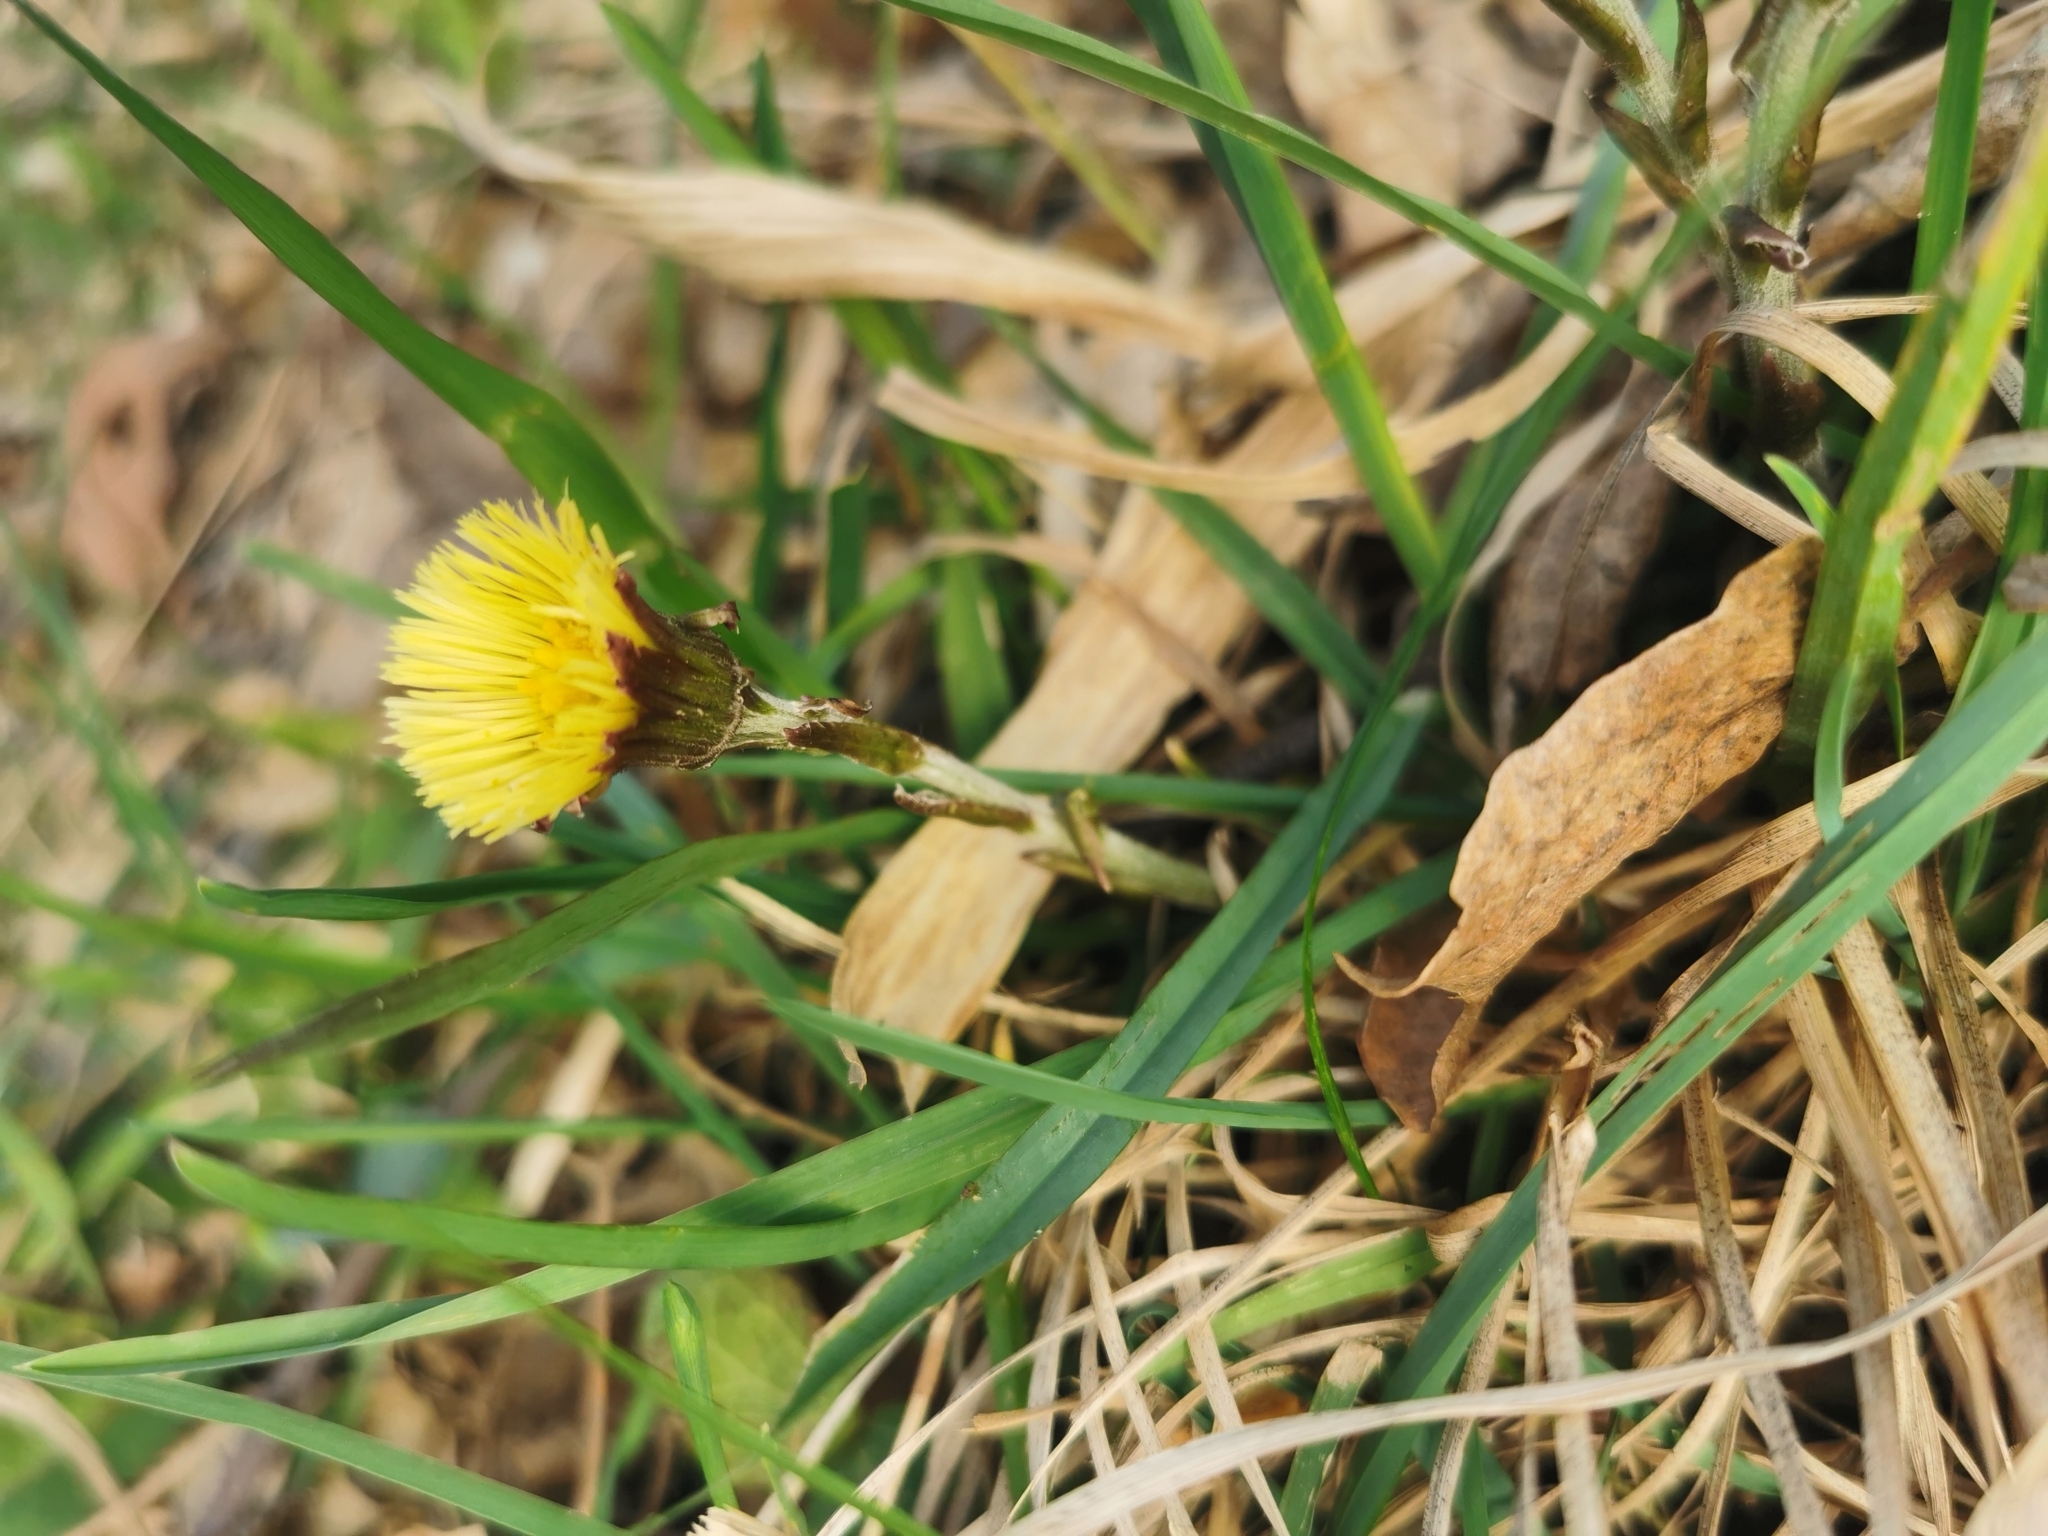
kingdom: Plantae
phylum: Tracheophyta
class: Magnoliopsida
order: Asterales
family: Asteraceae
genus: Tussilago
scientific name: Tussilago farfara
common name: Coltsfoot
